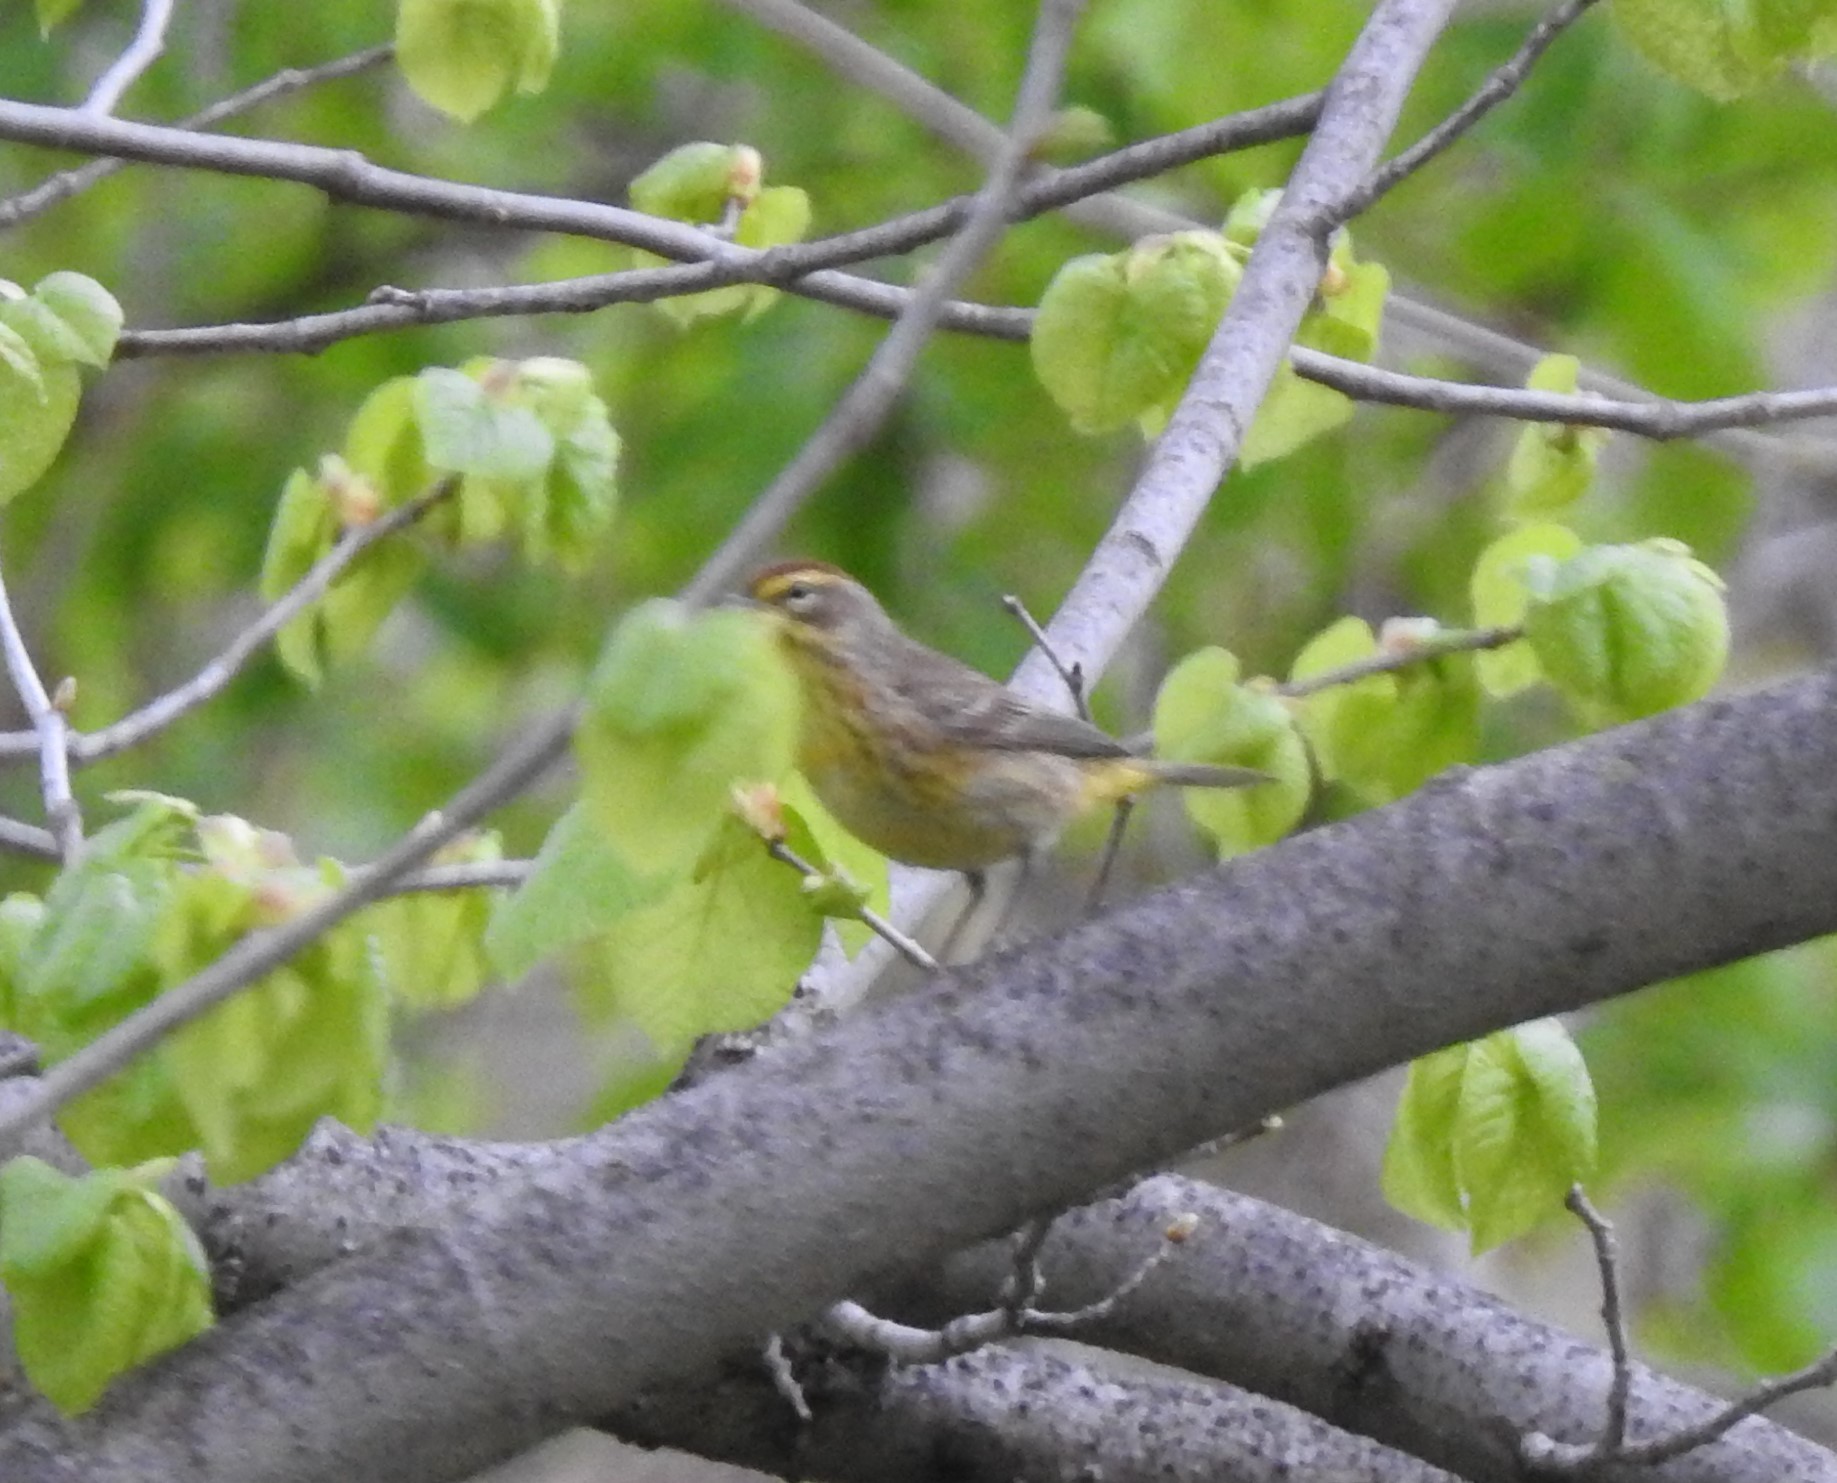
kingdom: Animalia
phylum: Chordata
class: Aves
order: Passeriformes
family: Parulidae
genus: Setophaga
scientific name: Setophaga palmarum
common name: Palm warbler
